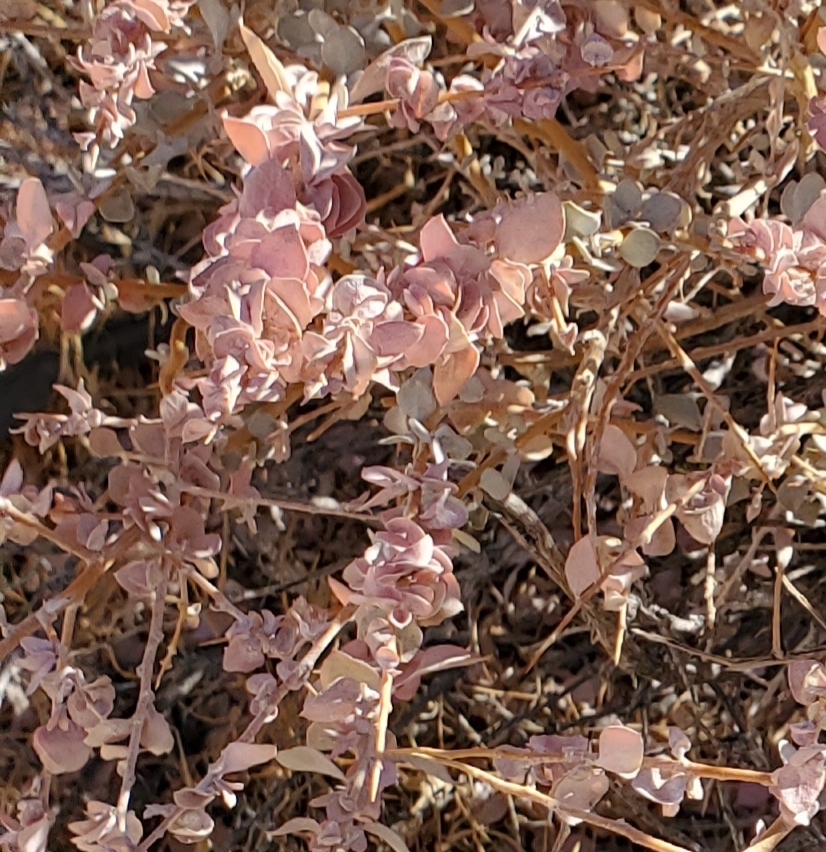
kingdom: Plantae
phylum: Tracheophyta
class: Magnoliopsida
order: Caryophyllales
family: Amaranthaceae
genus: Atriplex
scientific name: Atriplex confertifolia
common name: Shadscale
